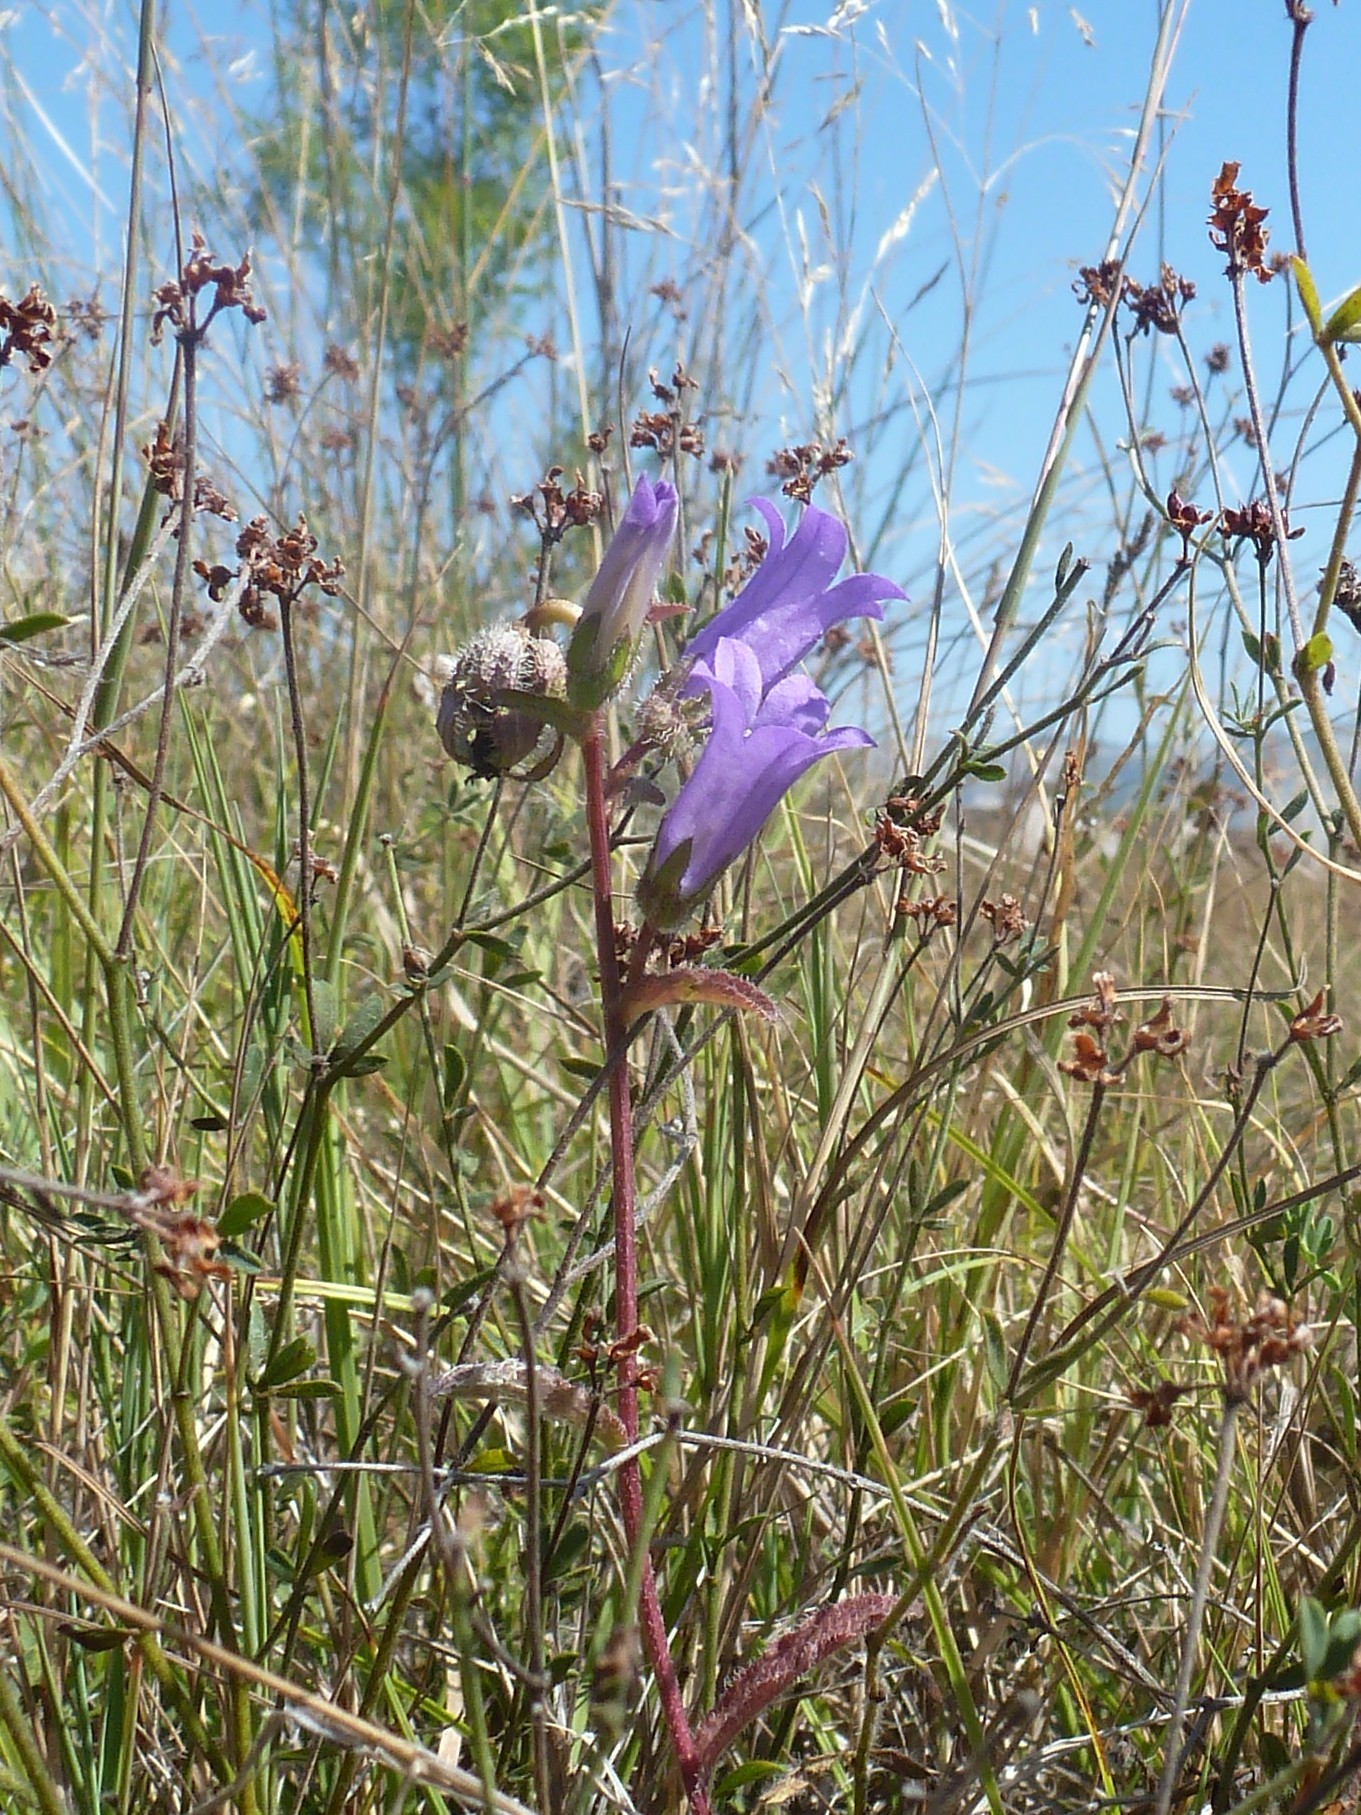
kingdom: Plantae
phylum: Tracheophyta
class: Magnoliopsida
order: Asterales
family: Campanulaceae
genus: Campanula
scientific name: Campanula komarovii
